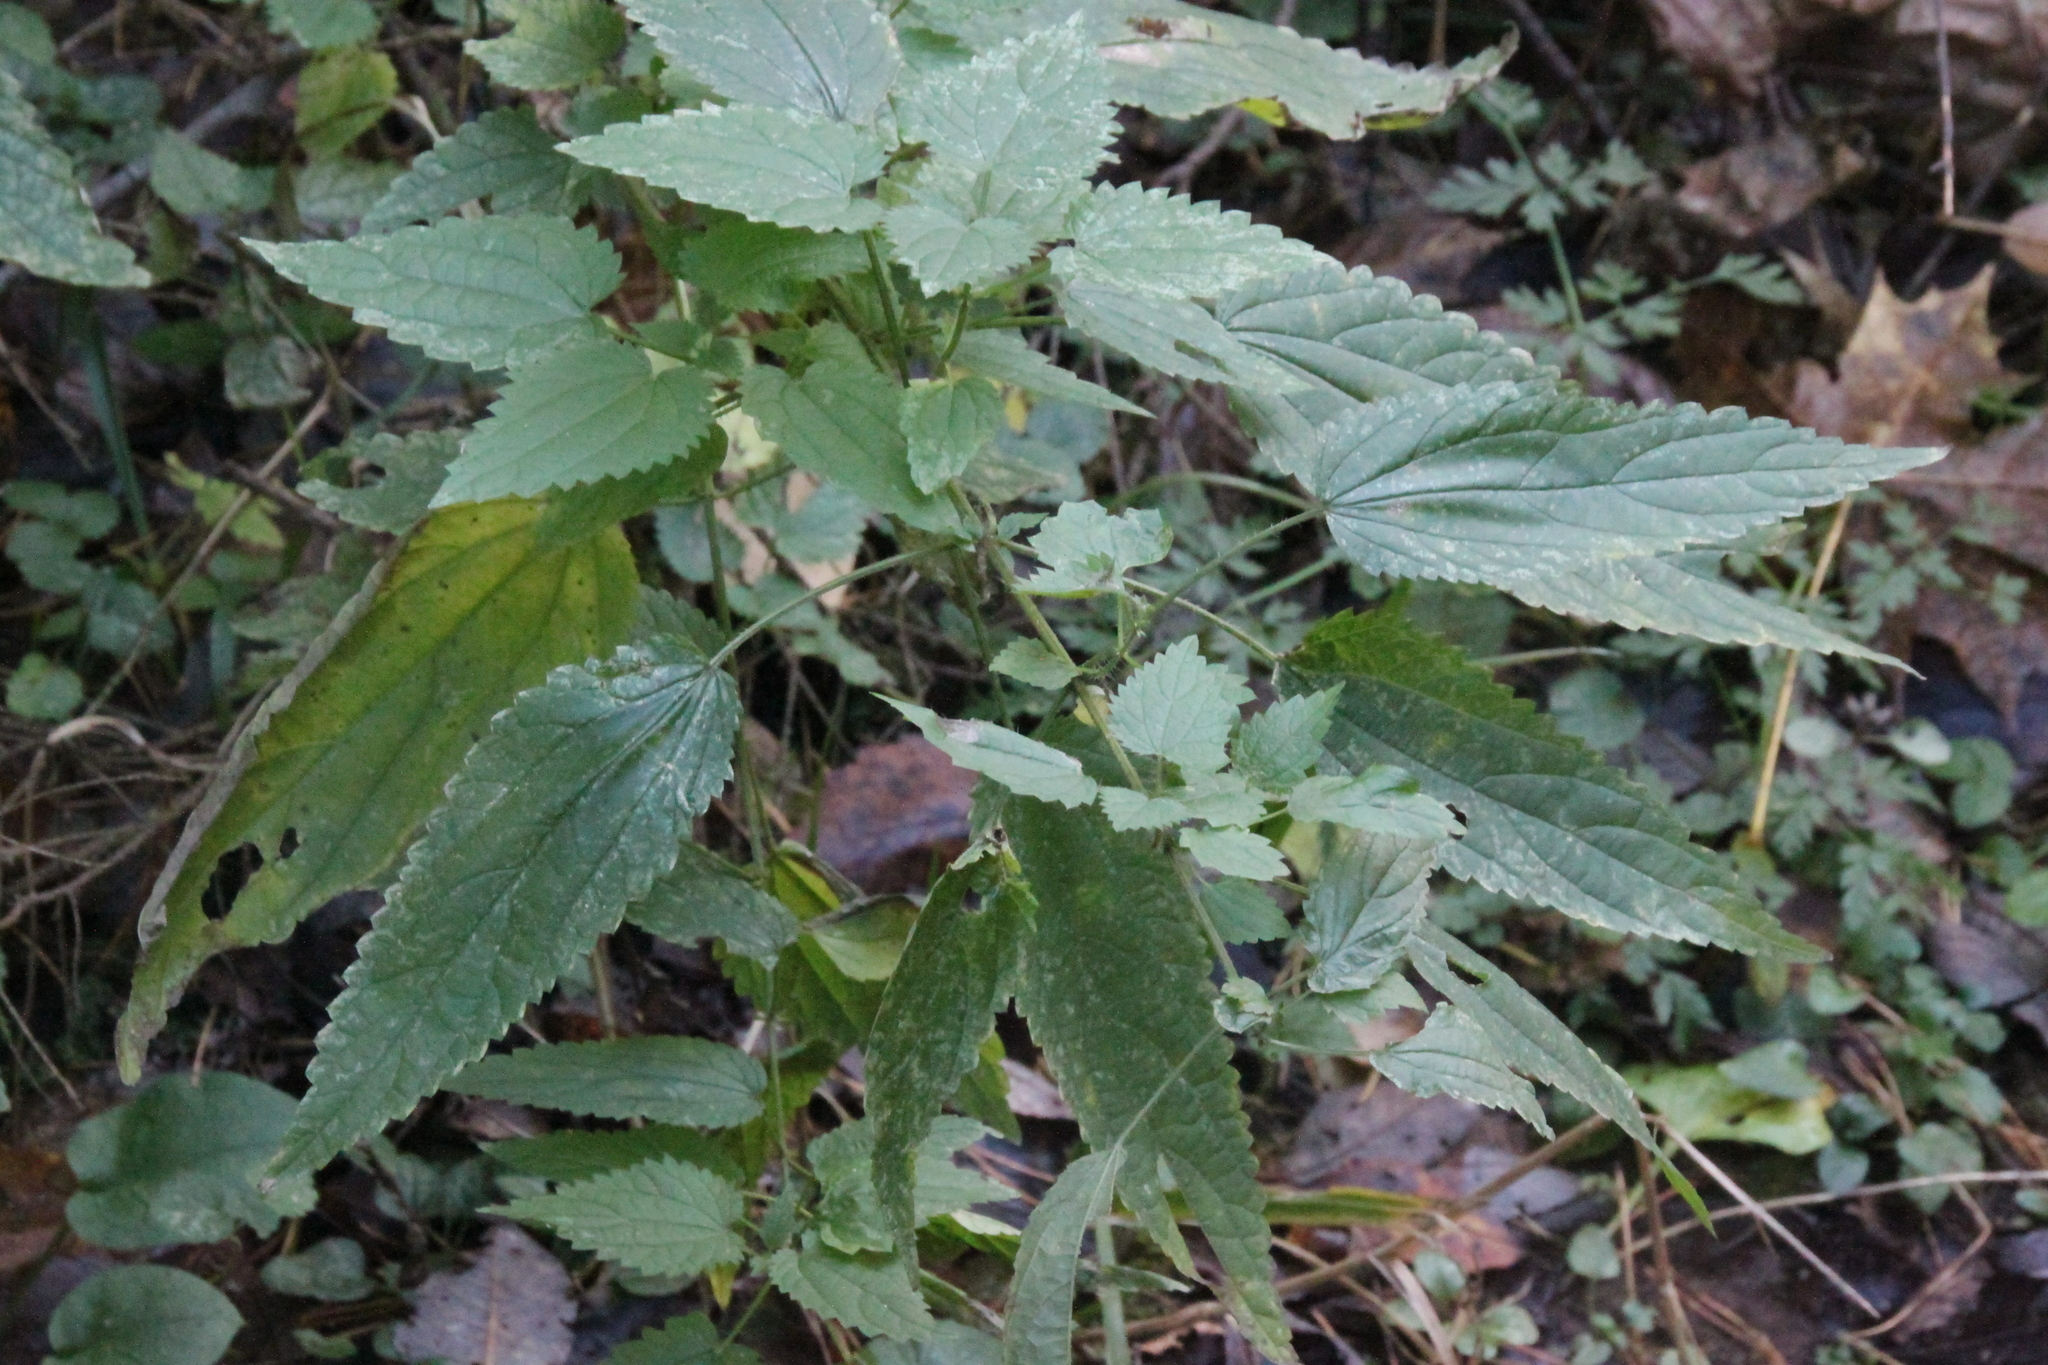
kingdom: Plantae
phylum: Tracheophyta
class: Magnoliopsida
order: Rosales
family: Urticaceae
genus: Urtica
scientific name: Urtica dioica
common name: Common nettle
